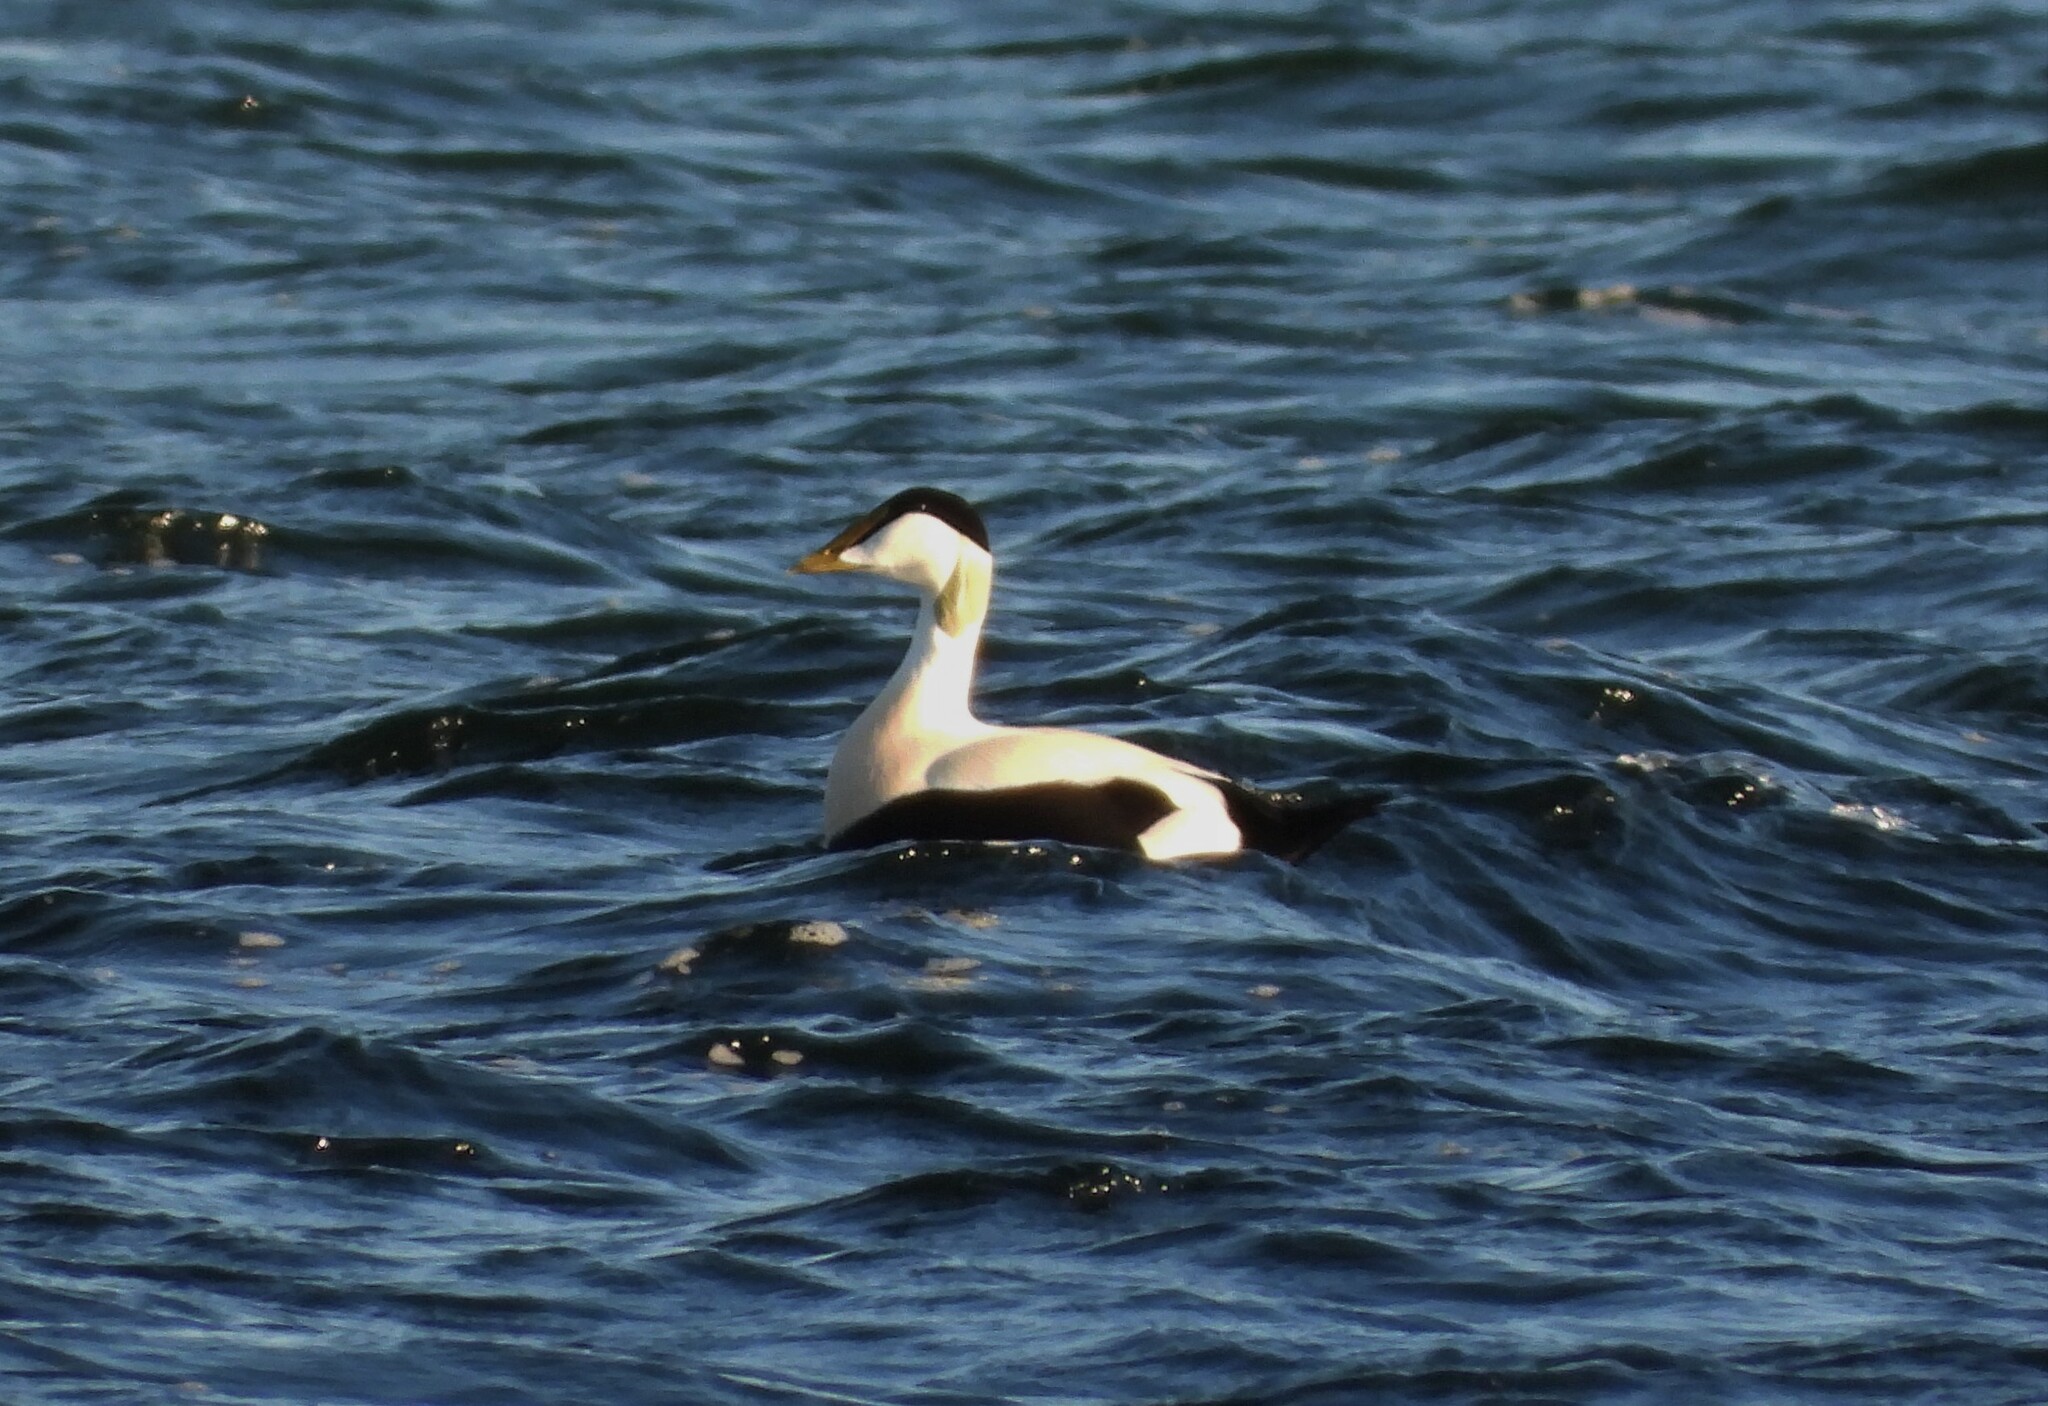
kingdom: Animalia
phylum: Chordata
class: Aves
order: Anseriformes
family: Anatidae
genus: Somateria
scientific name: Somateria mollissima
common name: Common eider
